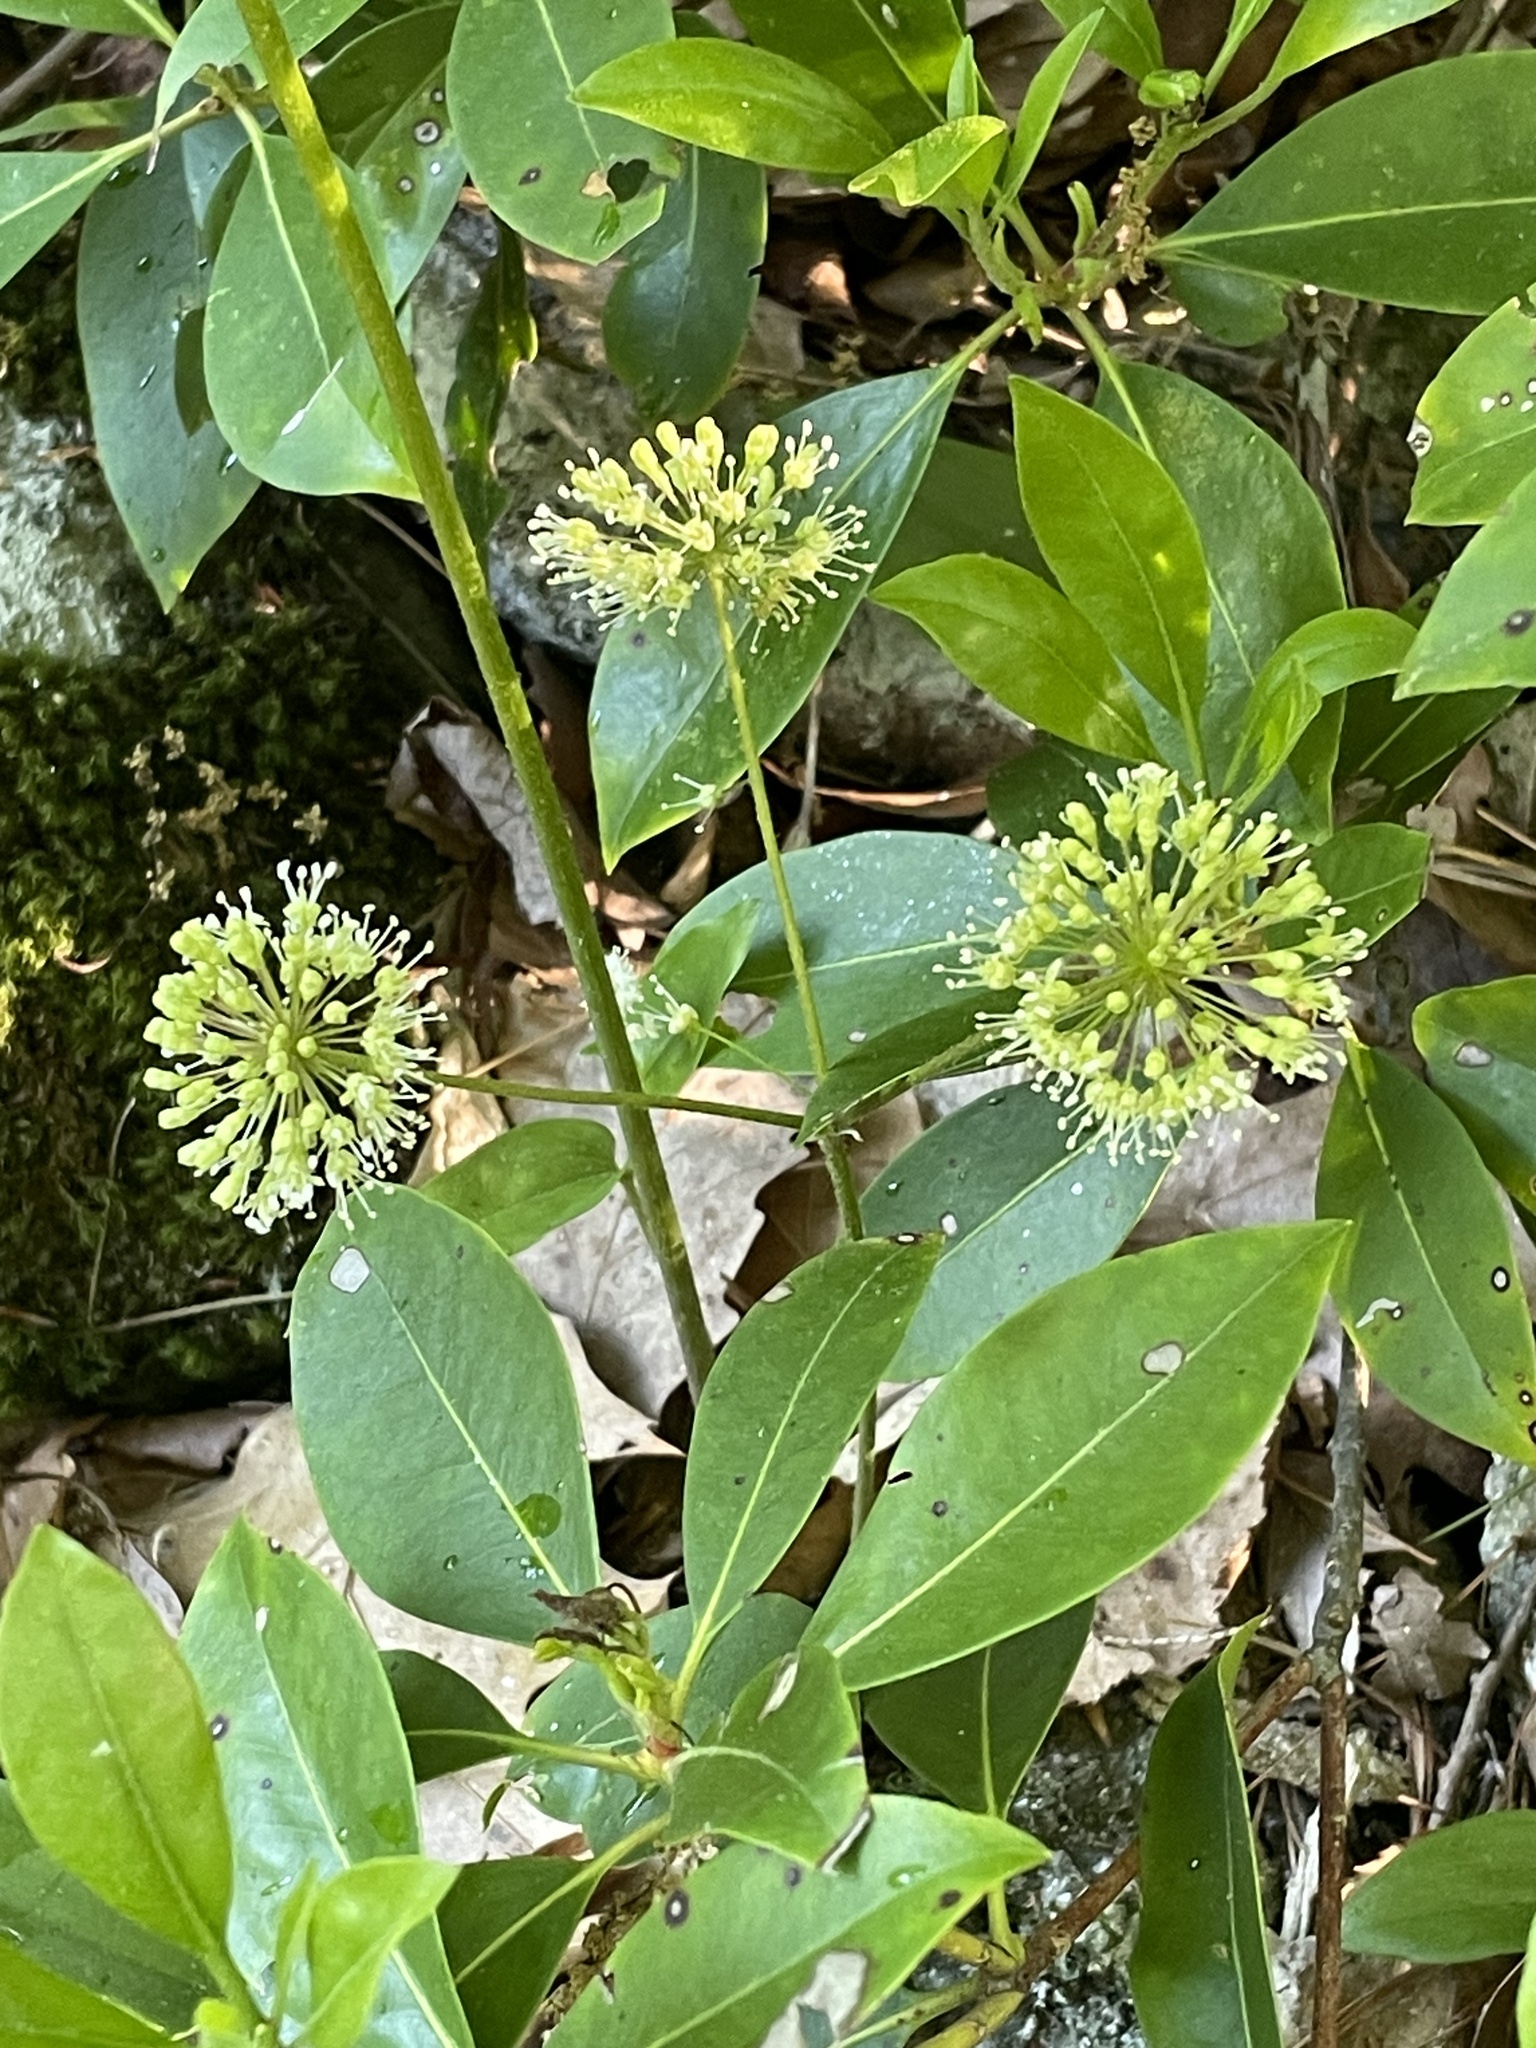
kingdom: Plantae
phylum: Tracheophyta
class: Magnoliopsida
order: Apiales
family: Araliaceae
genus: Aralia
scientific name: Aralia nudicaulis
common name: Wild sarsaparilla
